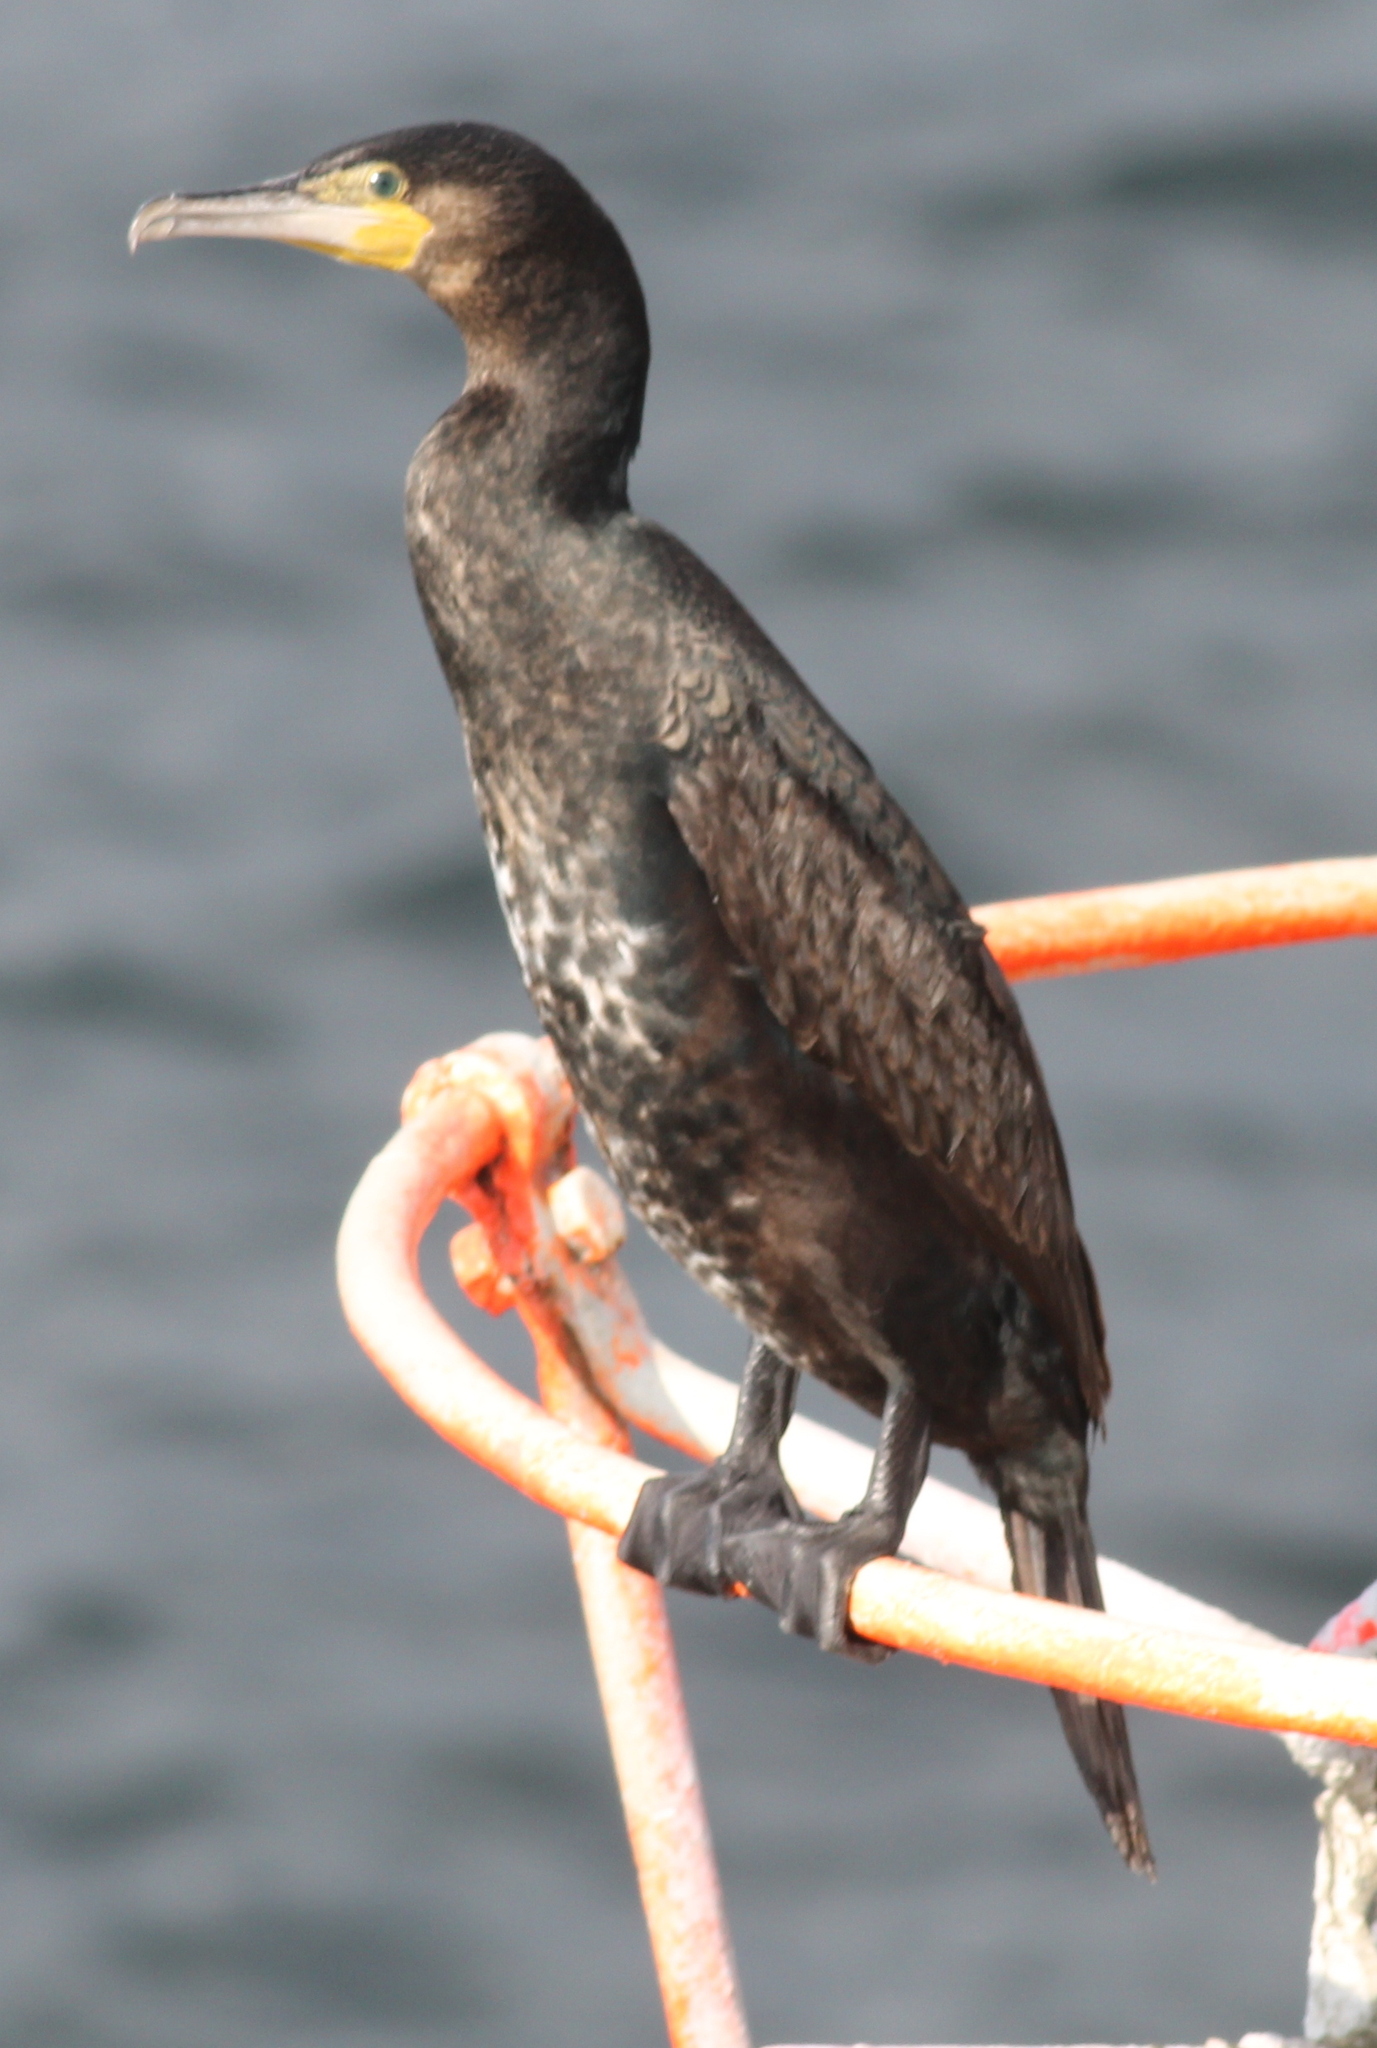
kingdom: Animalia
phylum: Chordata
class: Aves
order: Suliformes
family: Phalacrocoracidae
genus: Phalacrocorax
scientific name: Phalacrocorax carbo
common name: Great cormorant
